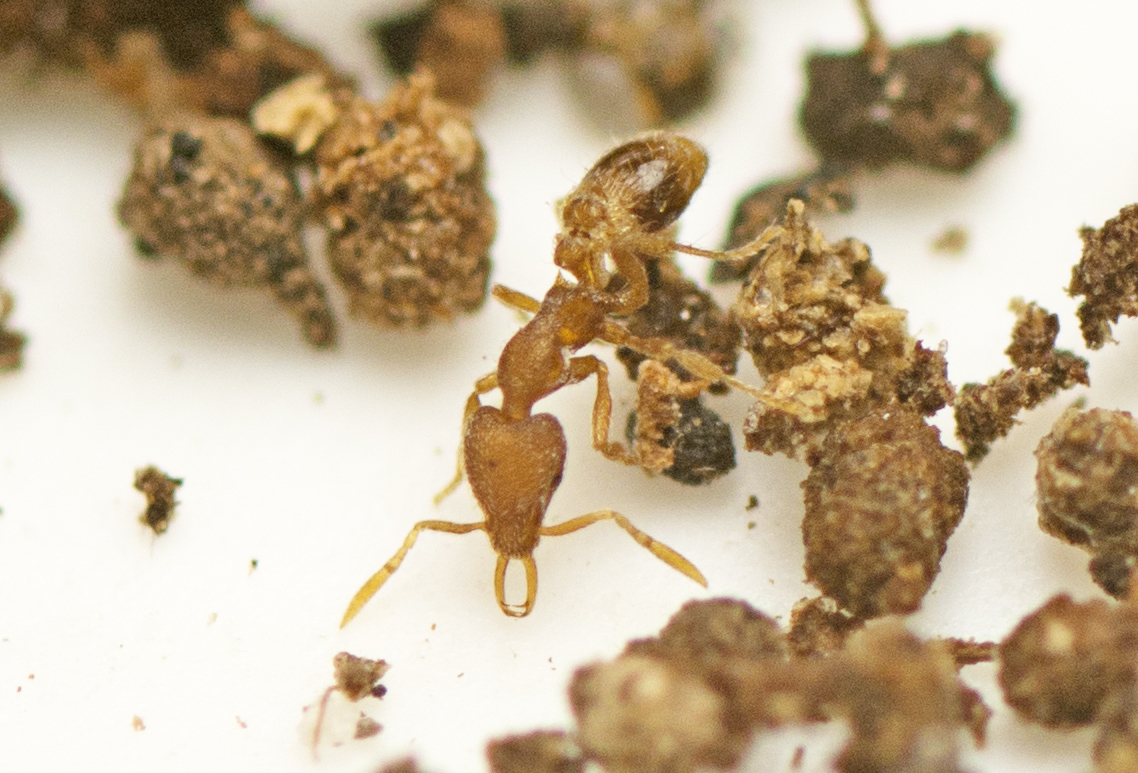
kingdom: Animalia
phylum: Arthropoda
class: Insecta
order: Hymenoptera
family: Formicidae
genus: Strumigenys
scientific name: Strumigenys
